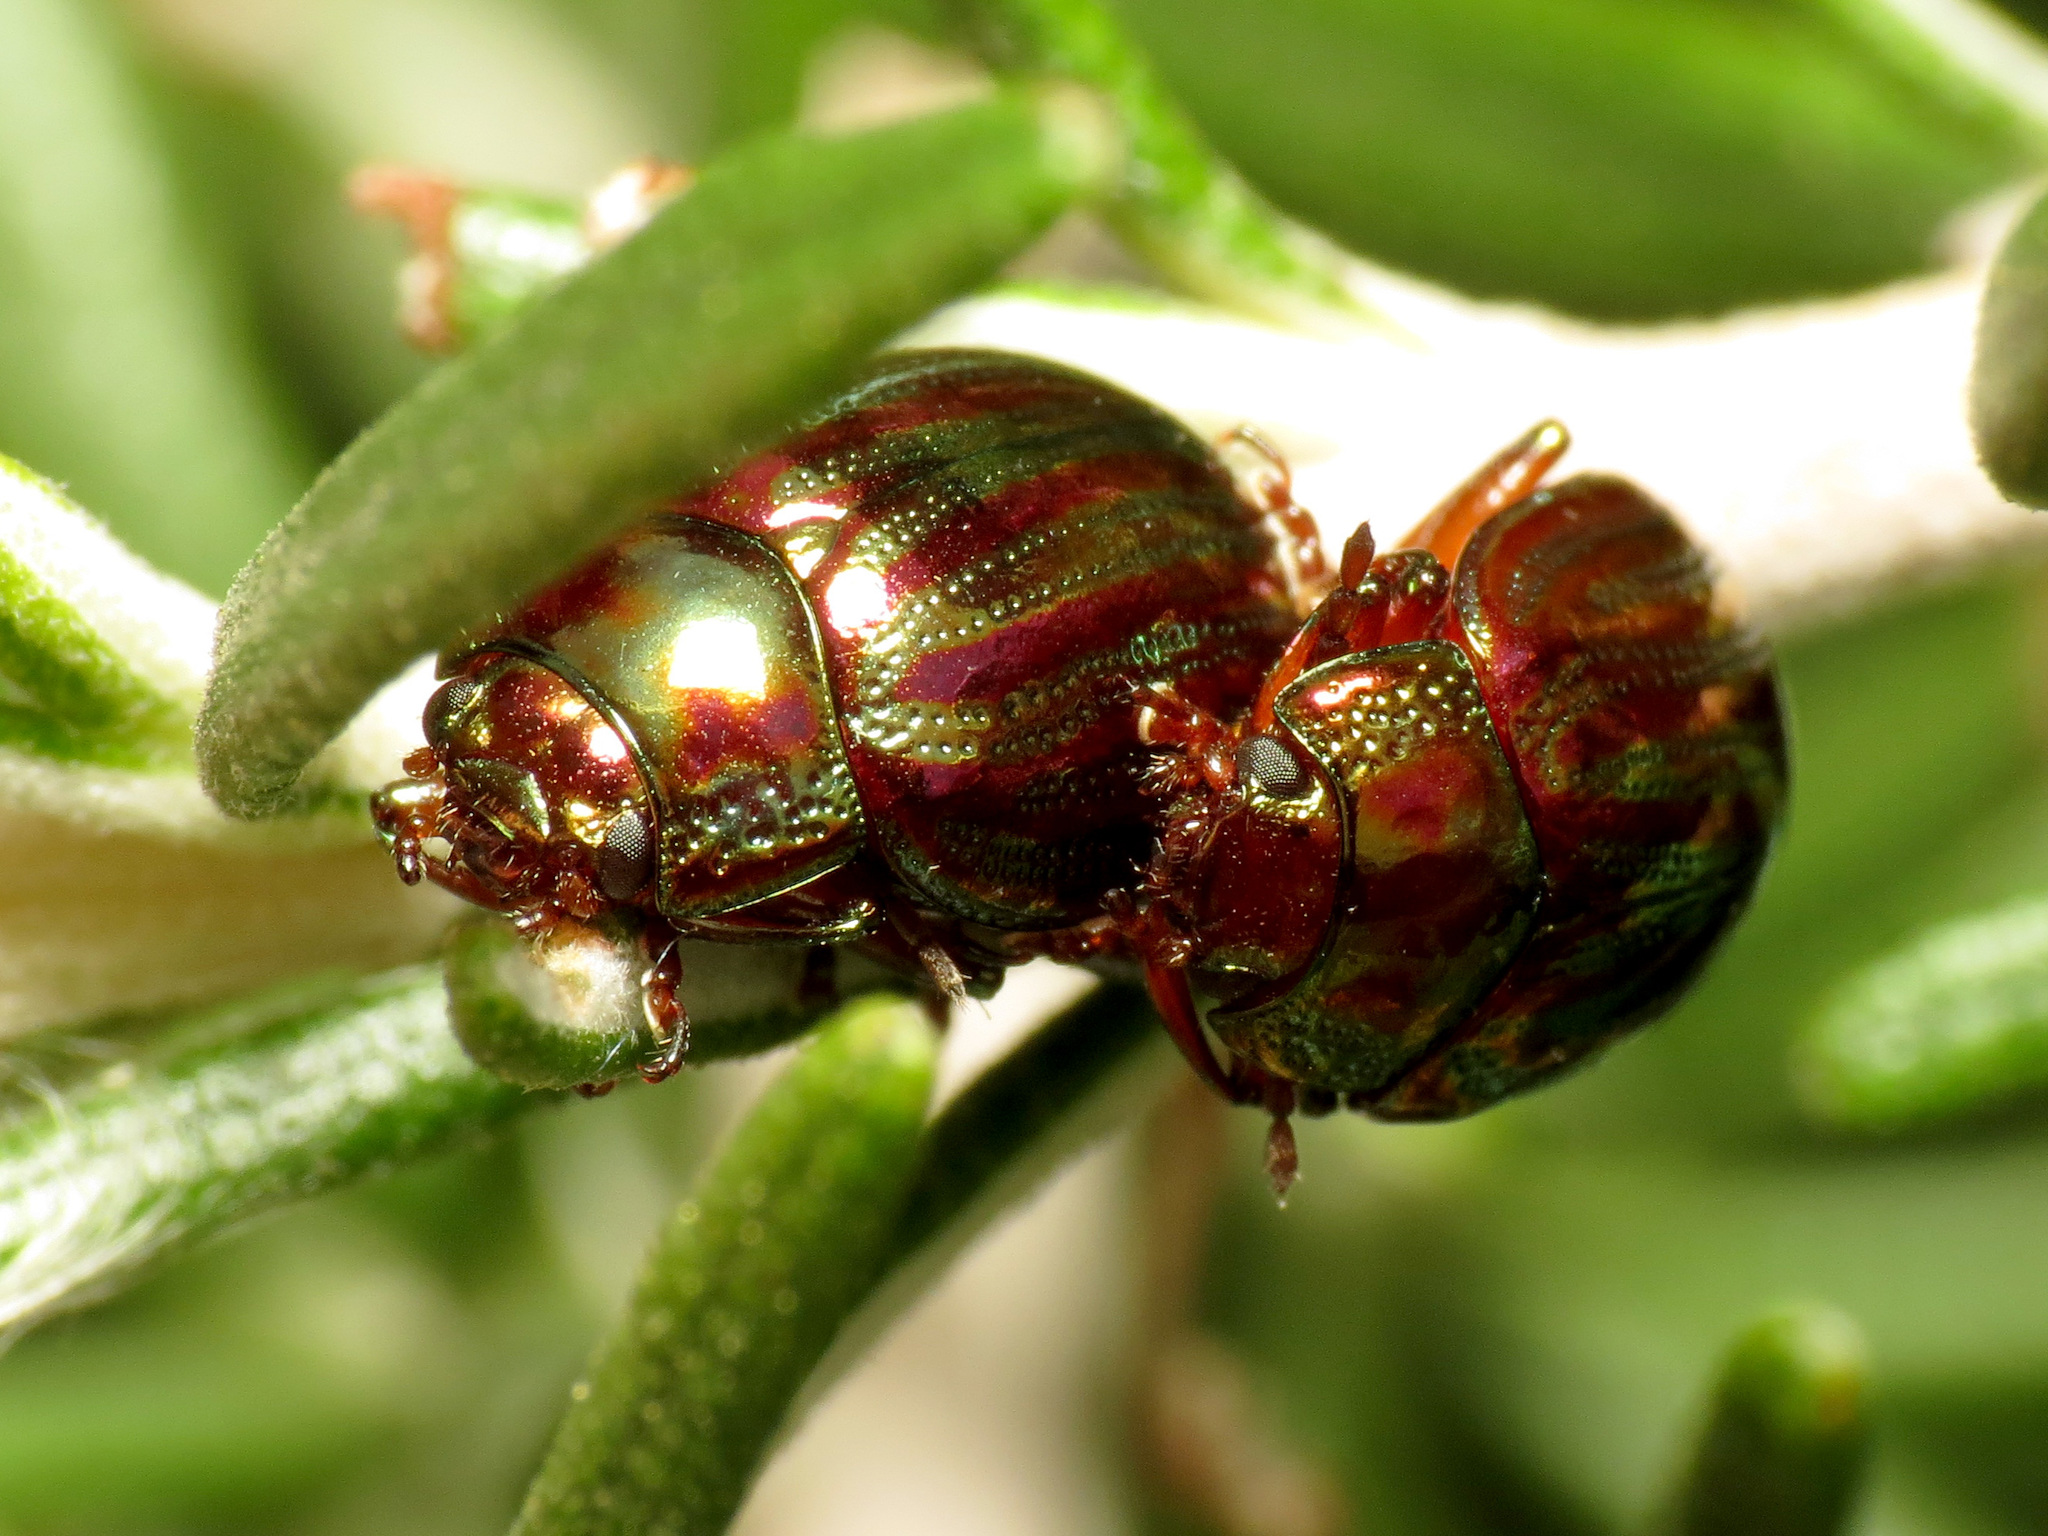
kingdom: Animalia
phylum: Arthropoda
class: Insecta
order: Coleoptera
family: Chrysomelidae
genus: Chrysolina
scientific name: Chrysolina americana
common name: Rosemary beetle
